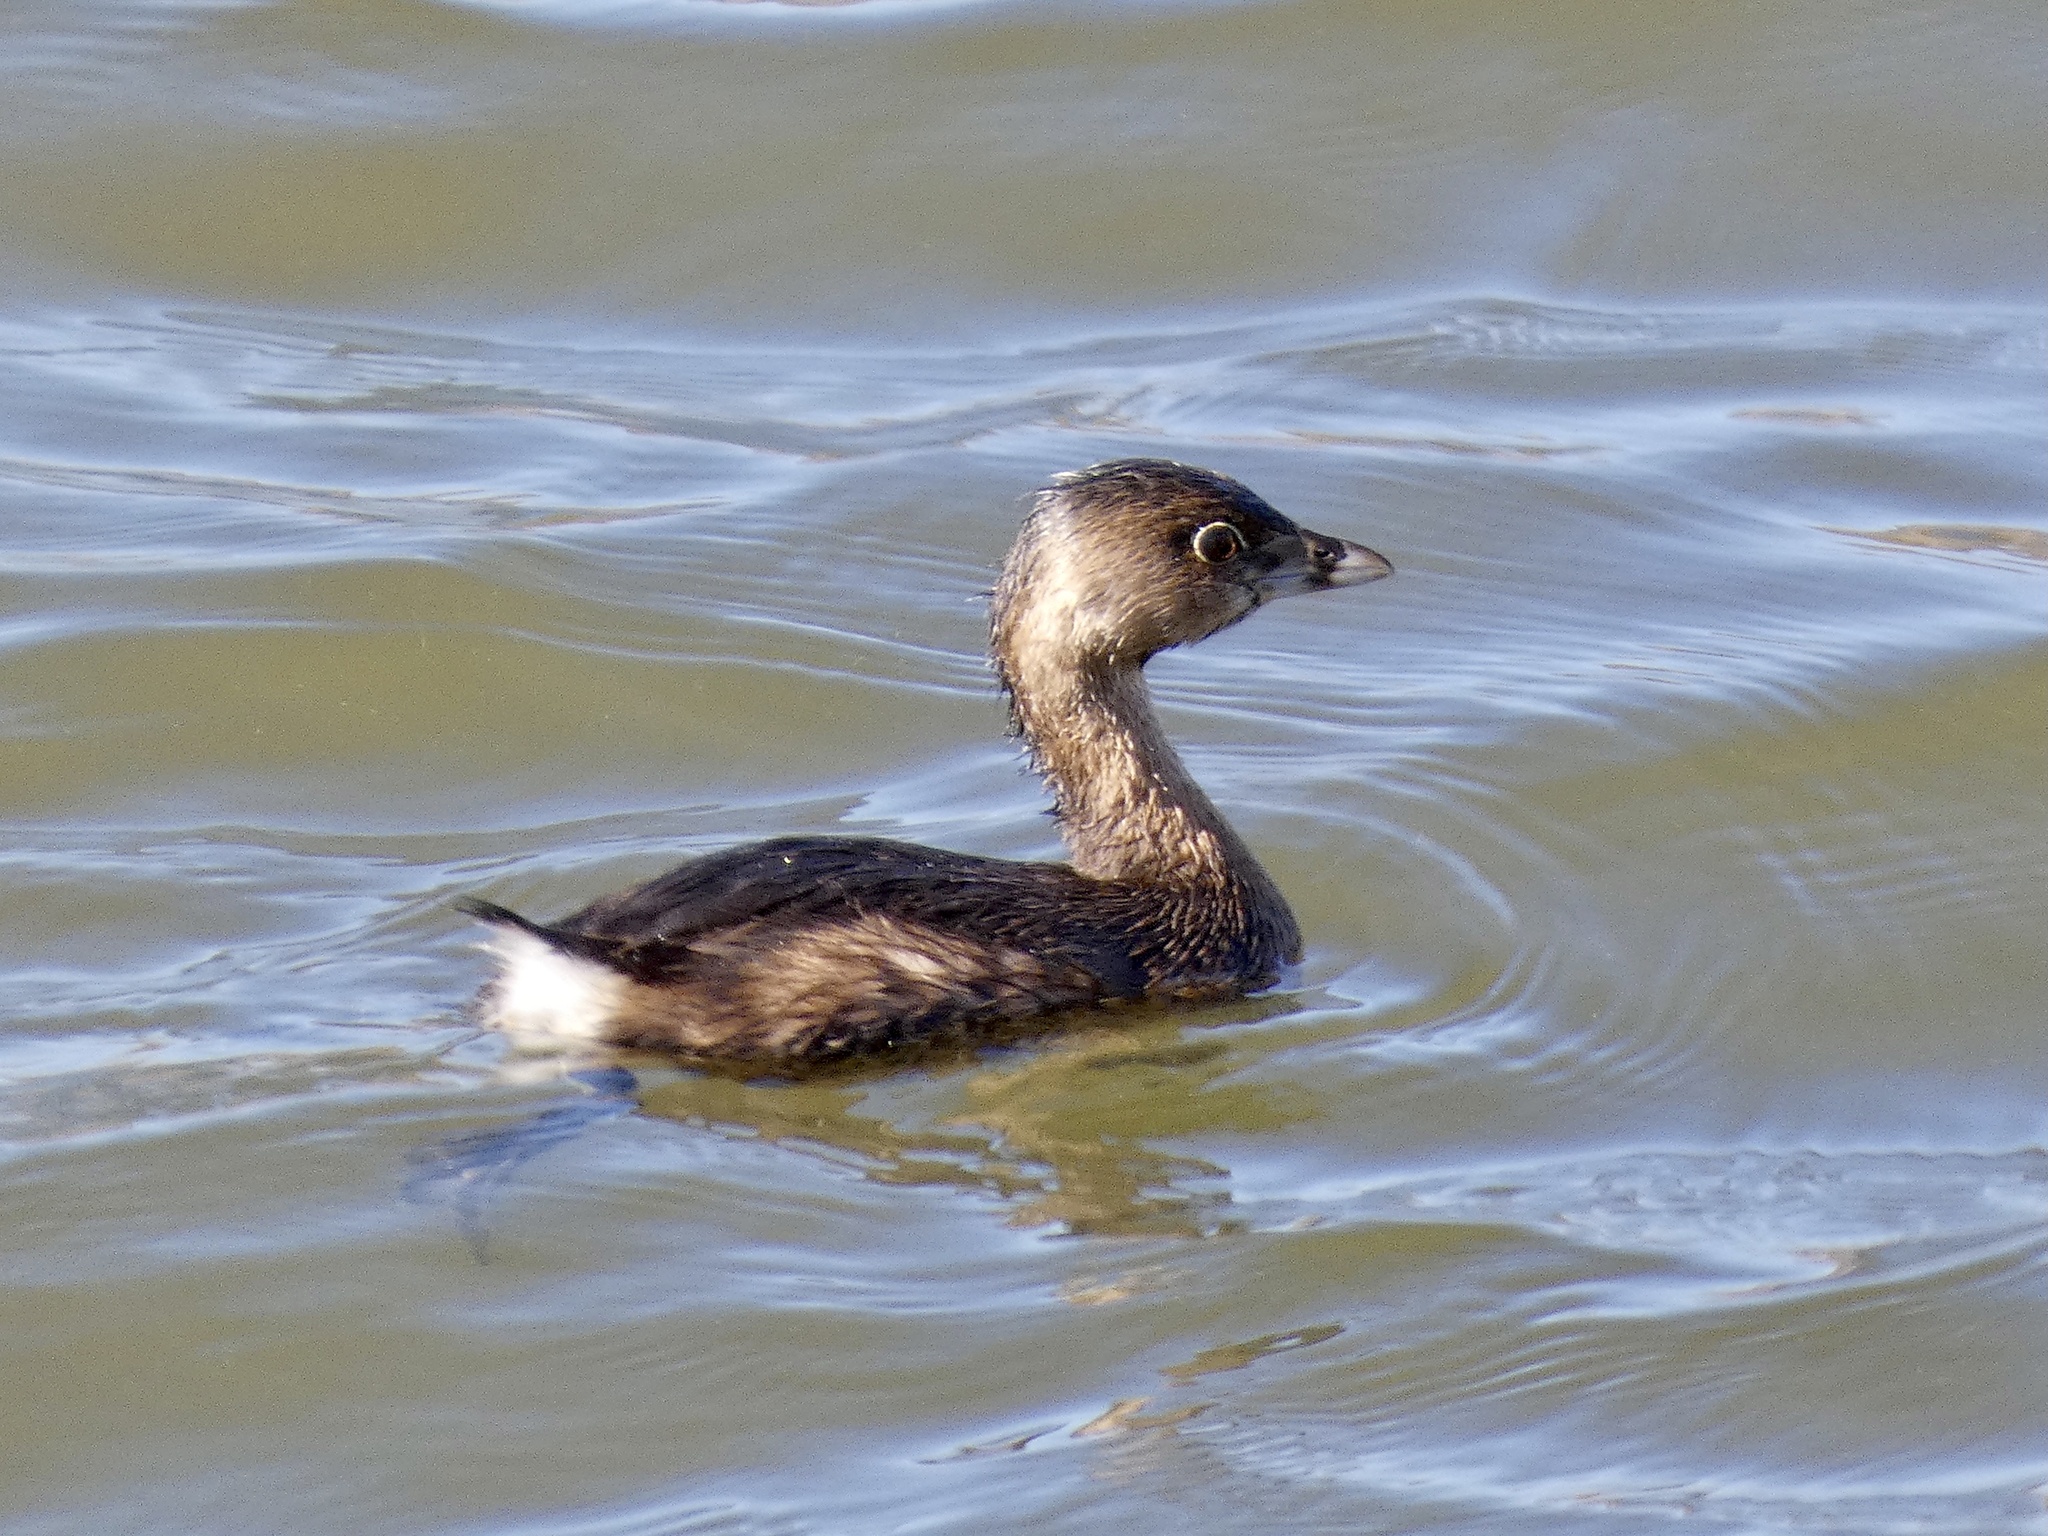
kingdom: Animalia
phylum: Chordata
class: Aves
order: Podicipediformes
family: Podicipedidae
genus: Podilymbus
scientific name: Podilymbus podiceps
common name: Pied-billed grebe
